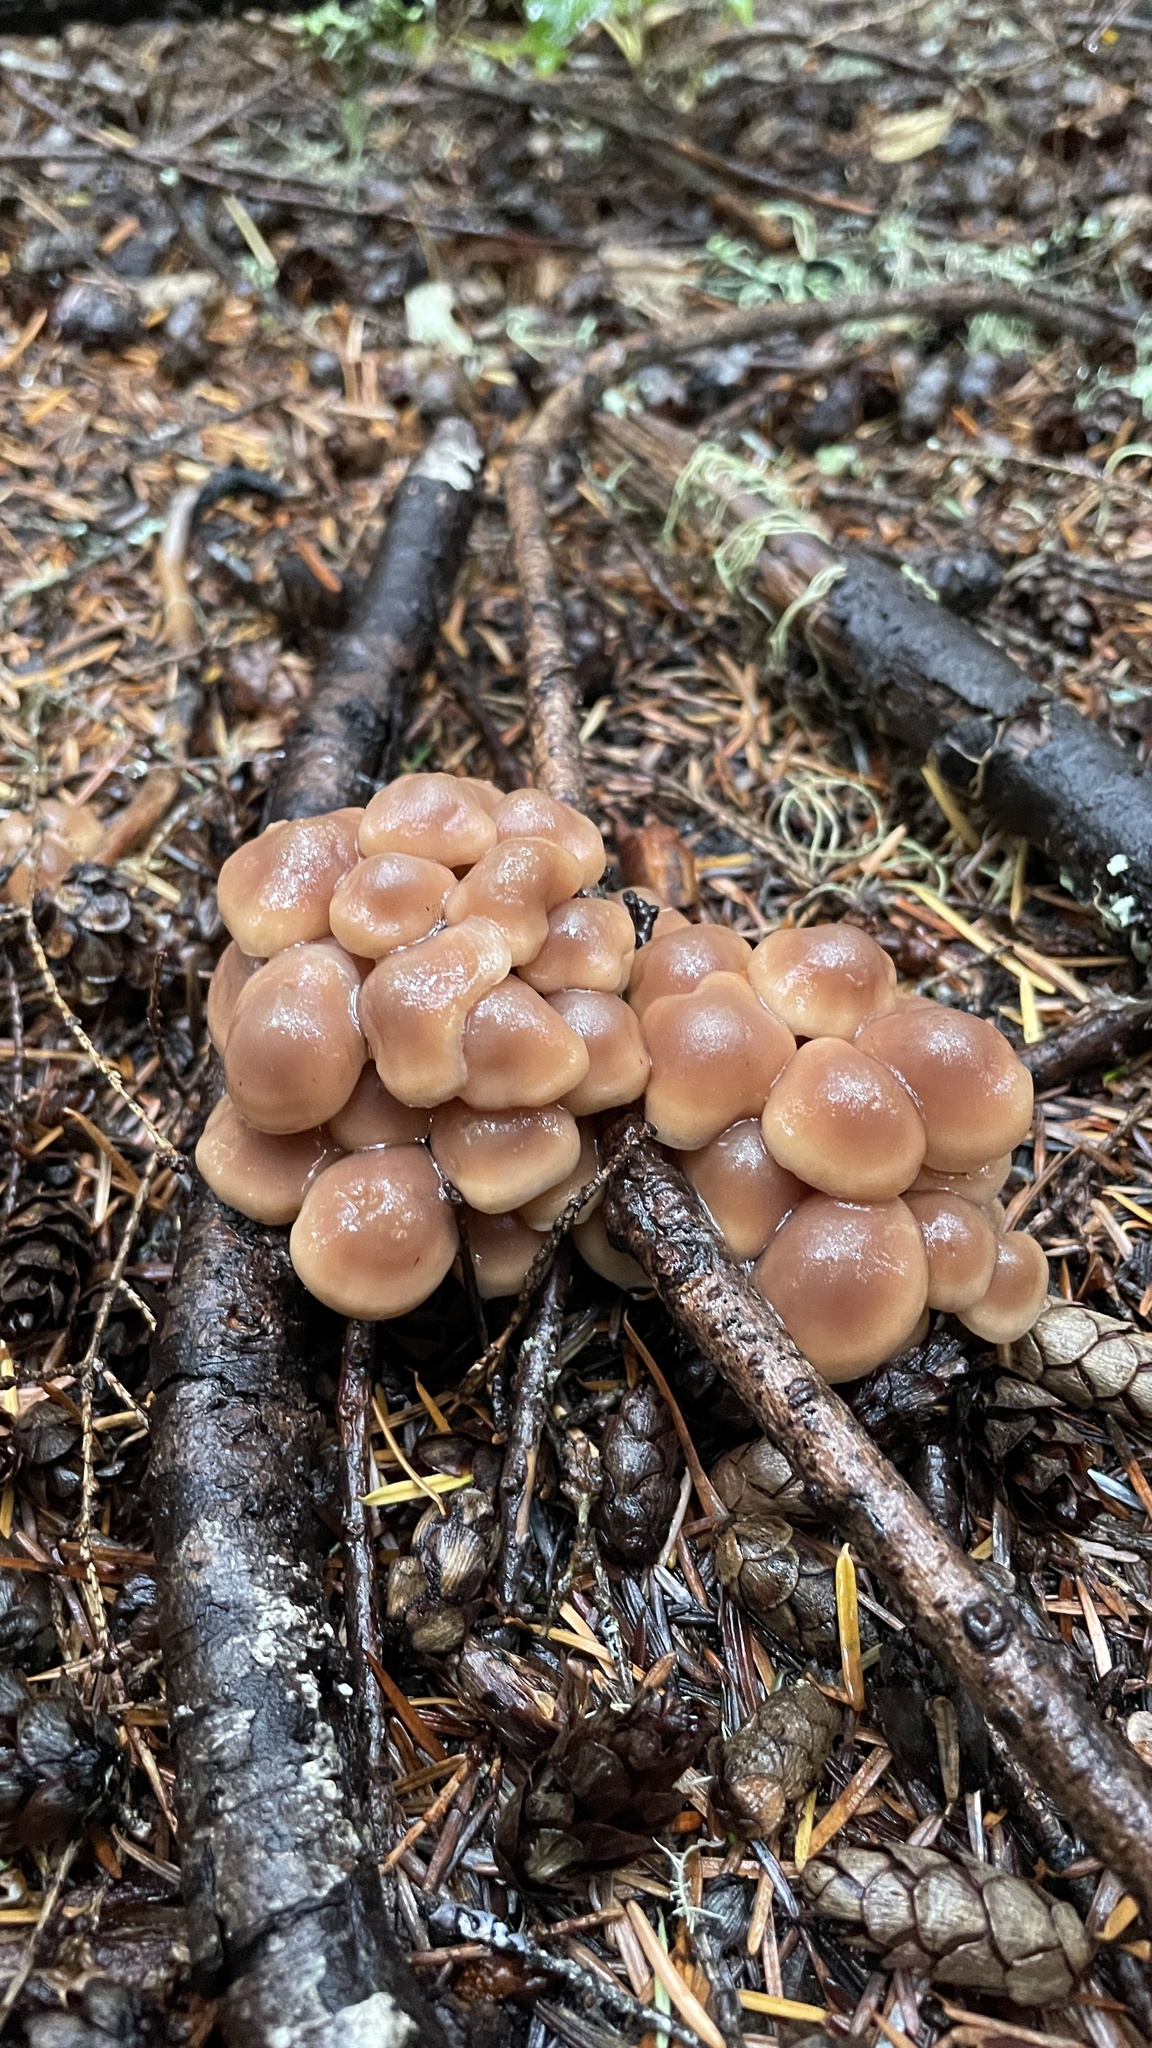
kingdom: Fungi
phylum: Basidiomycota
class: Agaricomycetes
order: Agaricales
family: Omphalotaceae
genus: Connopus
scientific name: Connopus acervatus
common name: Cluster cap
